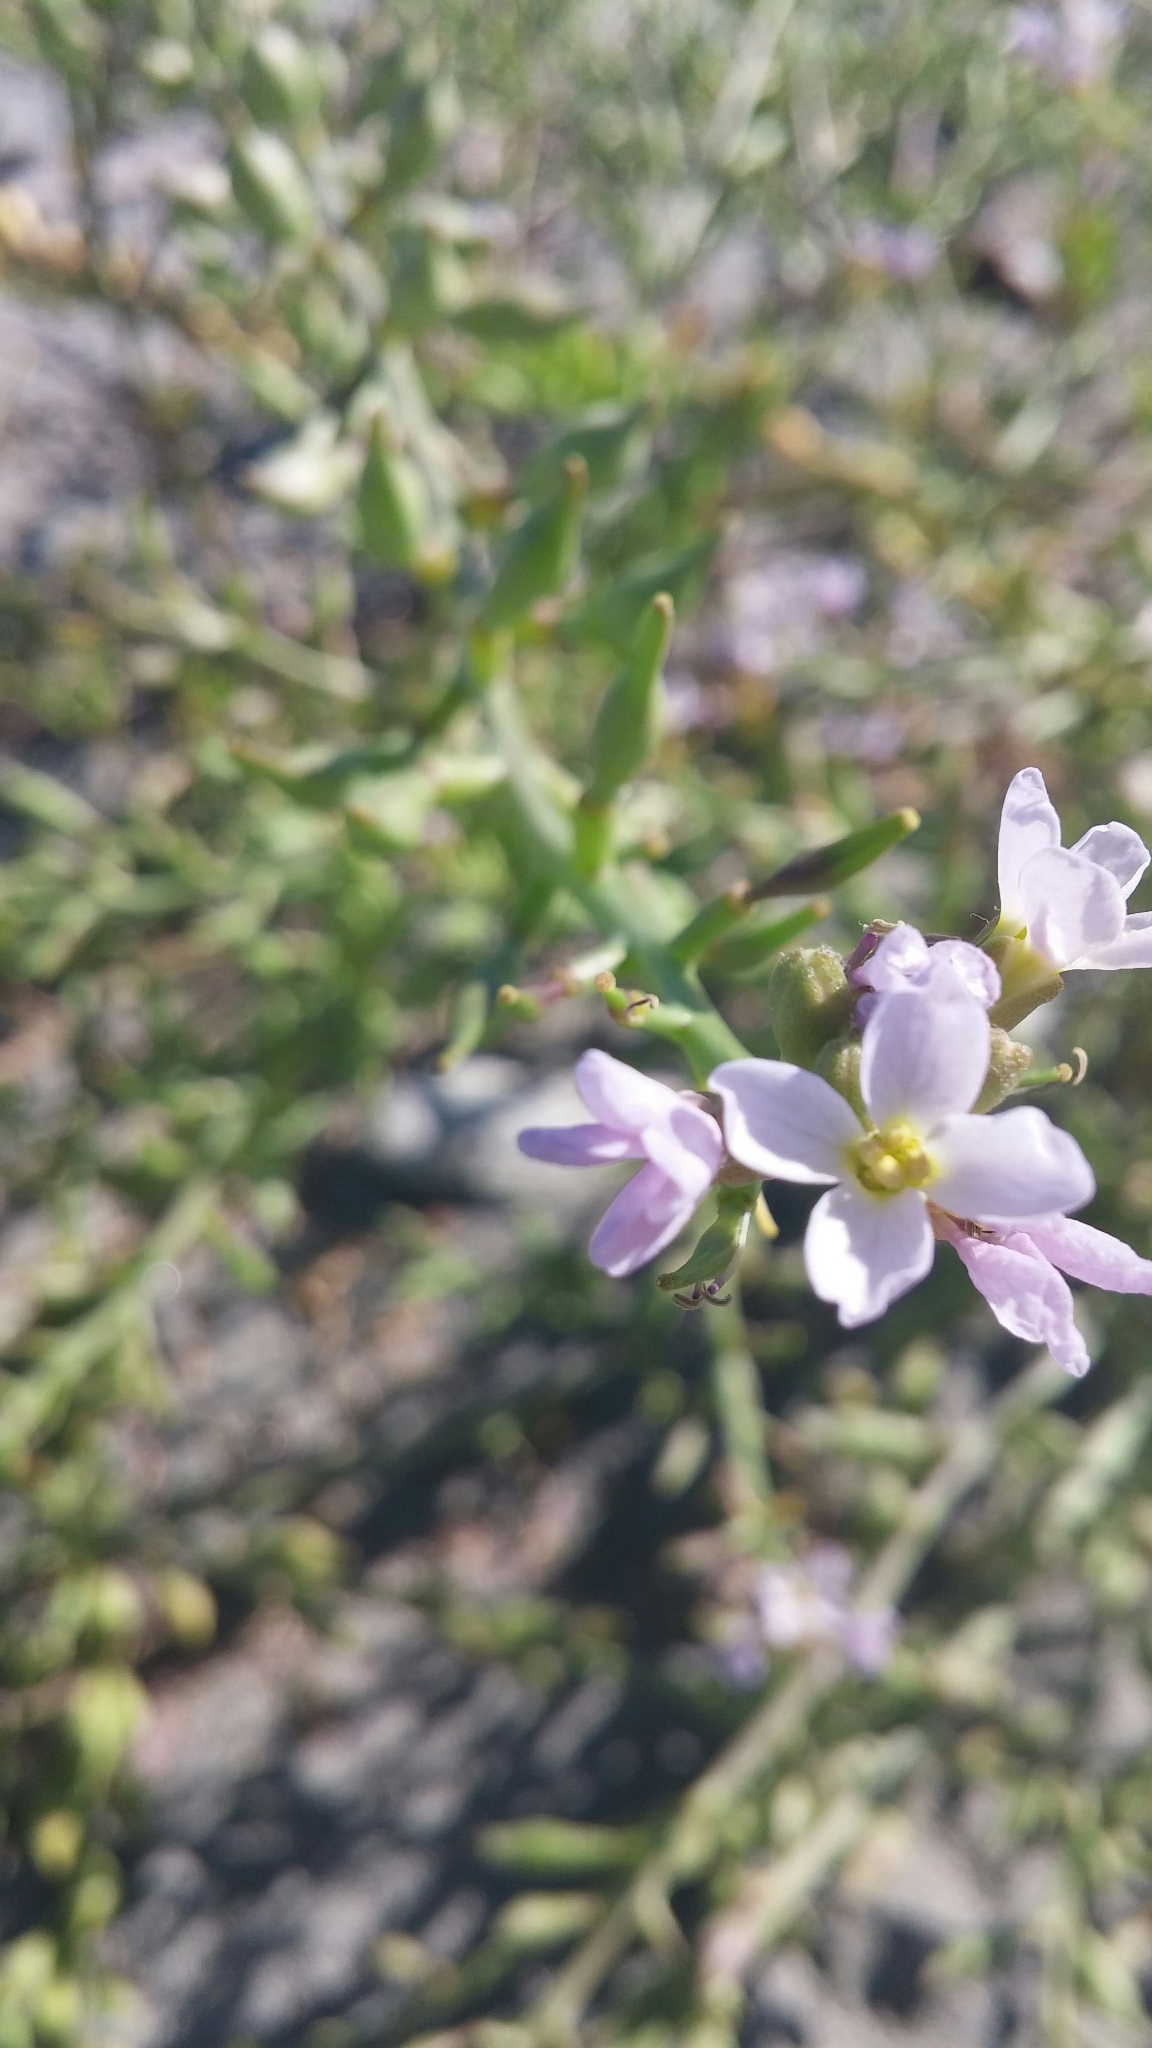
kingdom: Plantae
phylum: Tracheophyta
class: Magnoliopsida
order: Brassicales
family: Brassicaceae
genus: Cakile
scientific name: Cakile maritima
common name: Sea rocket
